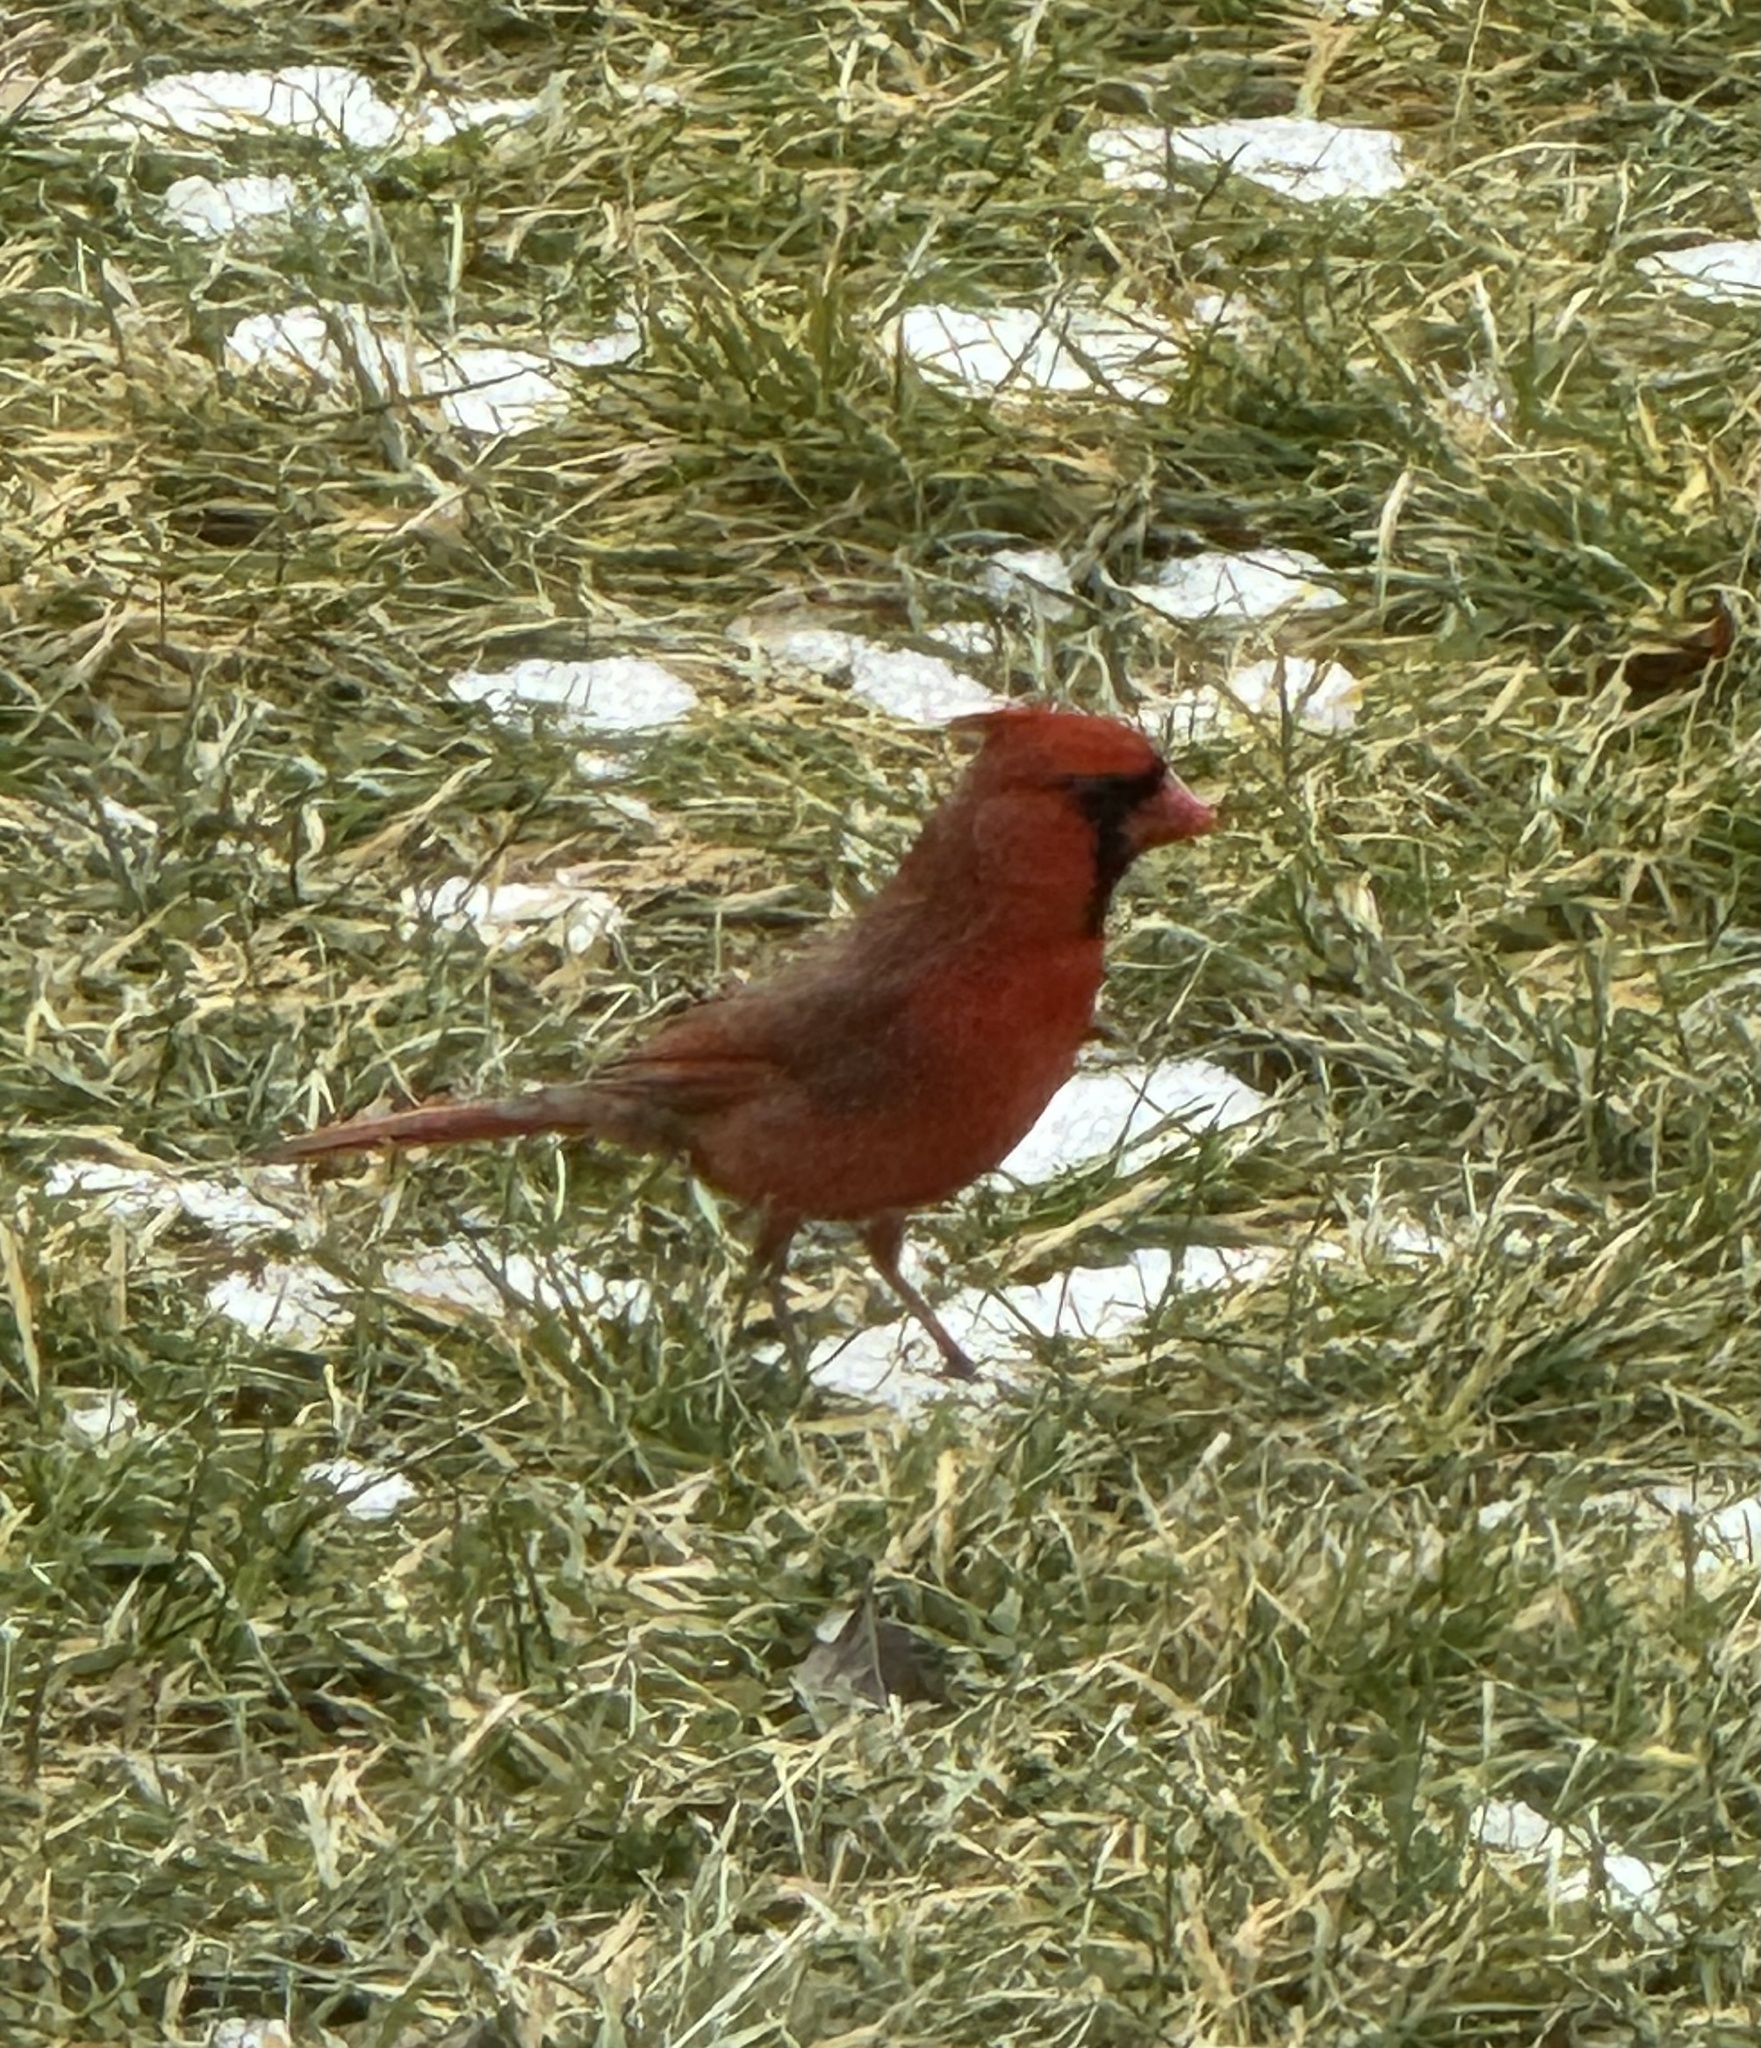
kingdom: Animalia
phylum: Chordata
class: Aves
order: Passeriformes
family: Cardinalidae
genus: Cardinalis
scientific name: Cardinalis cardinalis
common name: Northern cardinal
